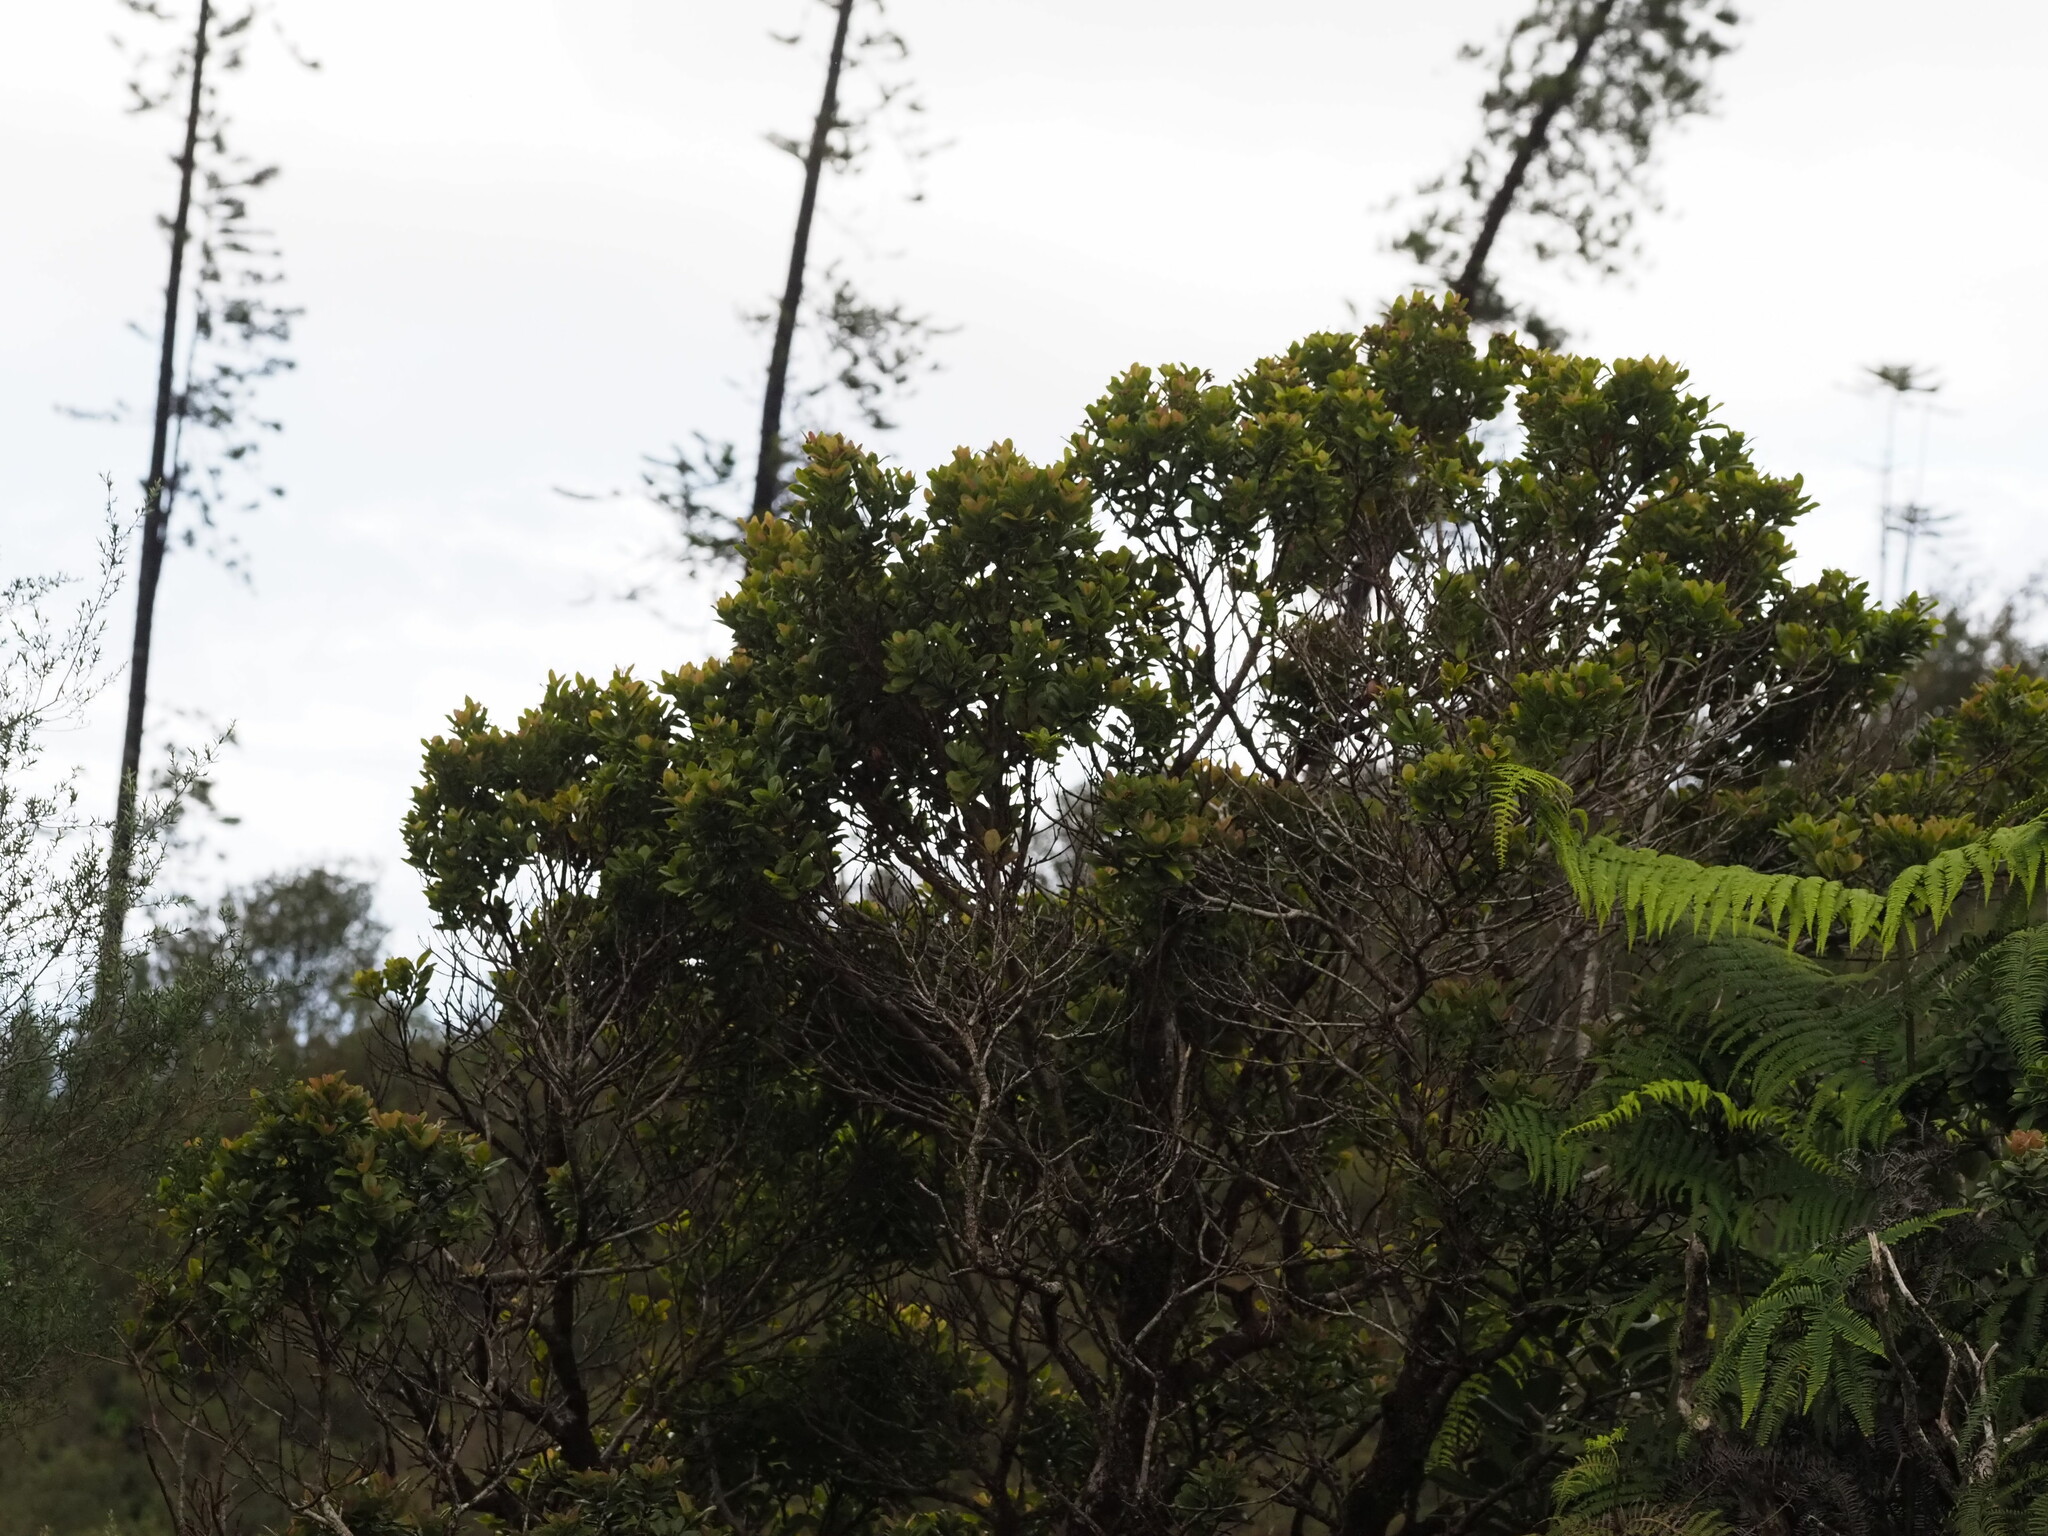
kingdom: Plantae
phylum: Tracheophyta
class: Magnoliopsida
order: Myrtales
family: Myrtaceae
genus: Metrosideros
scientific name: Metrosideros polymorpha
